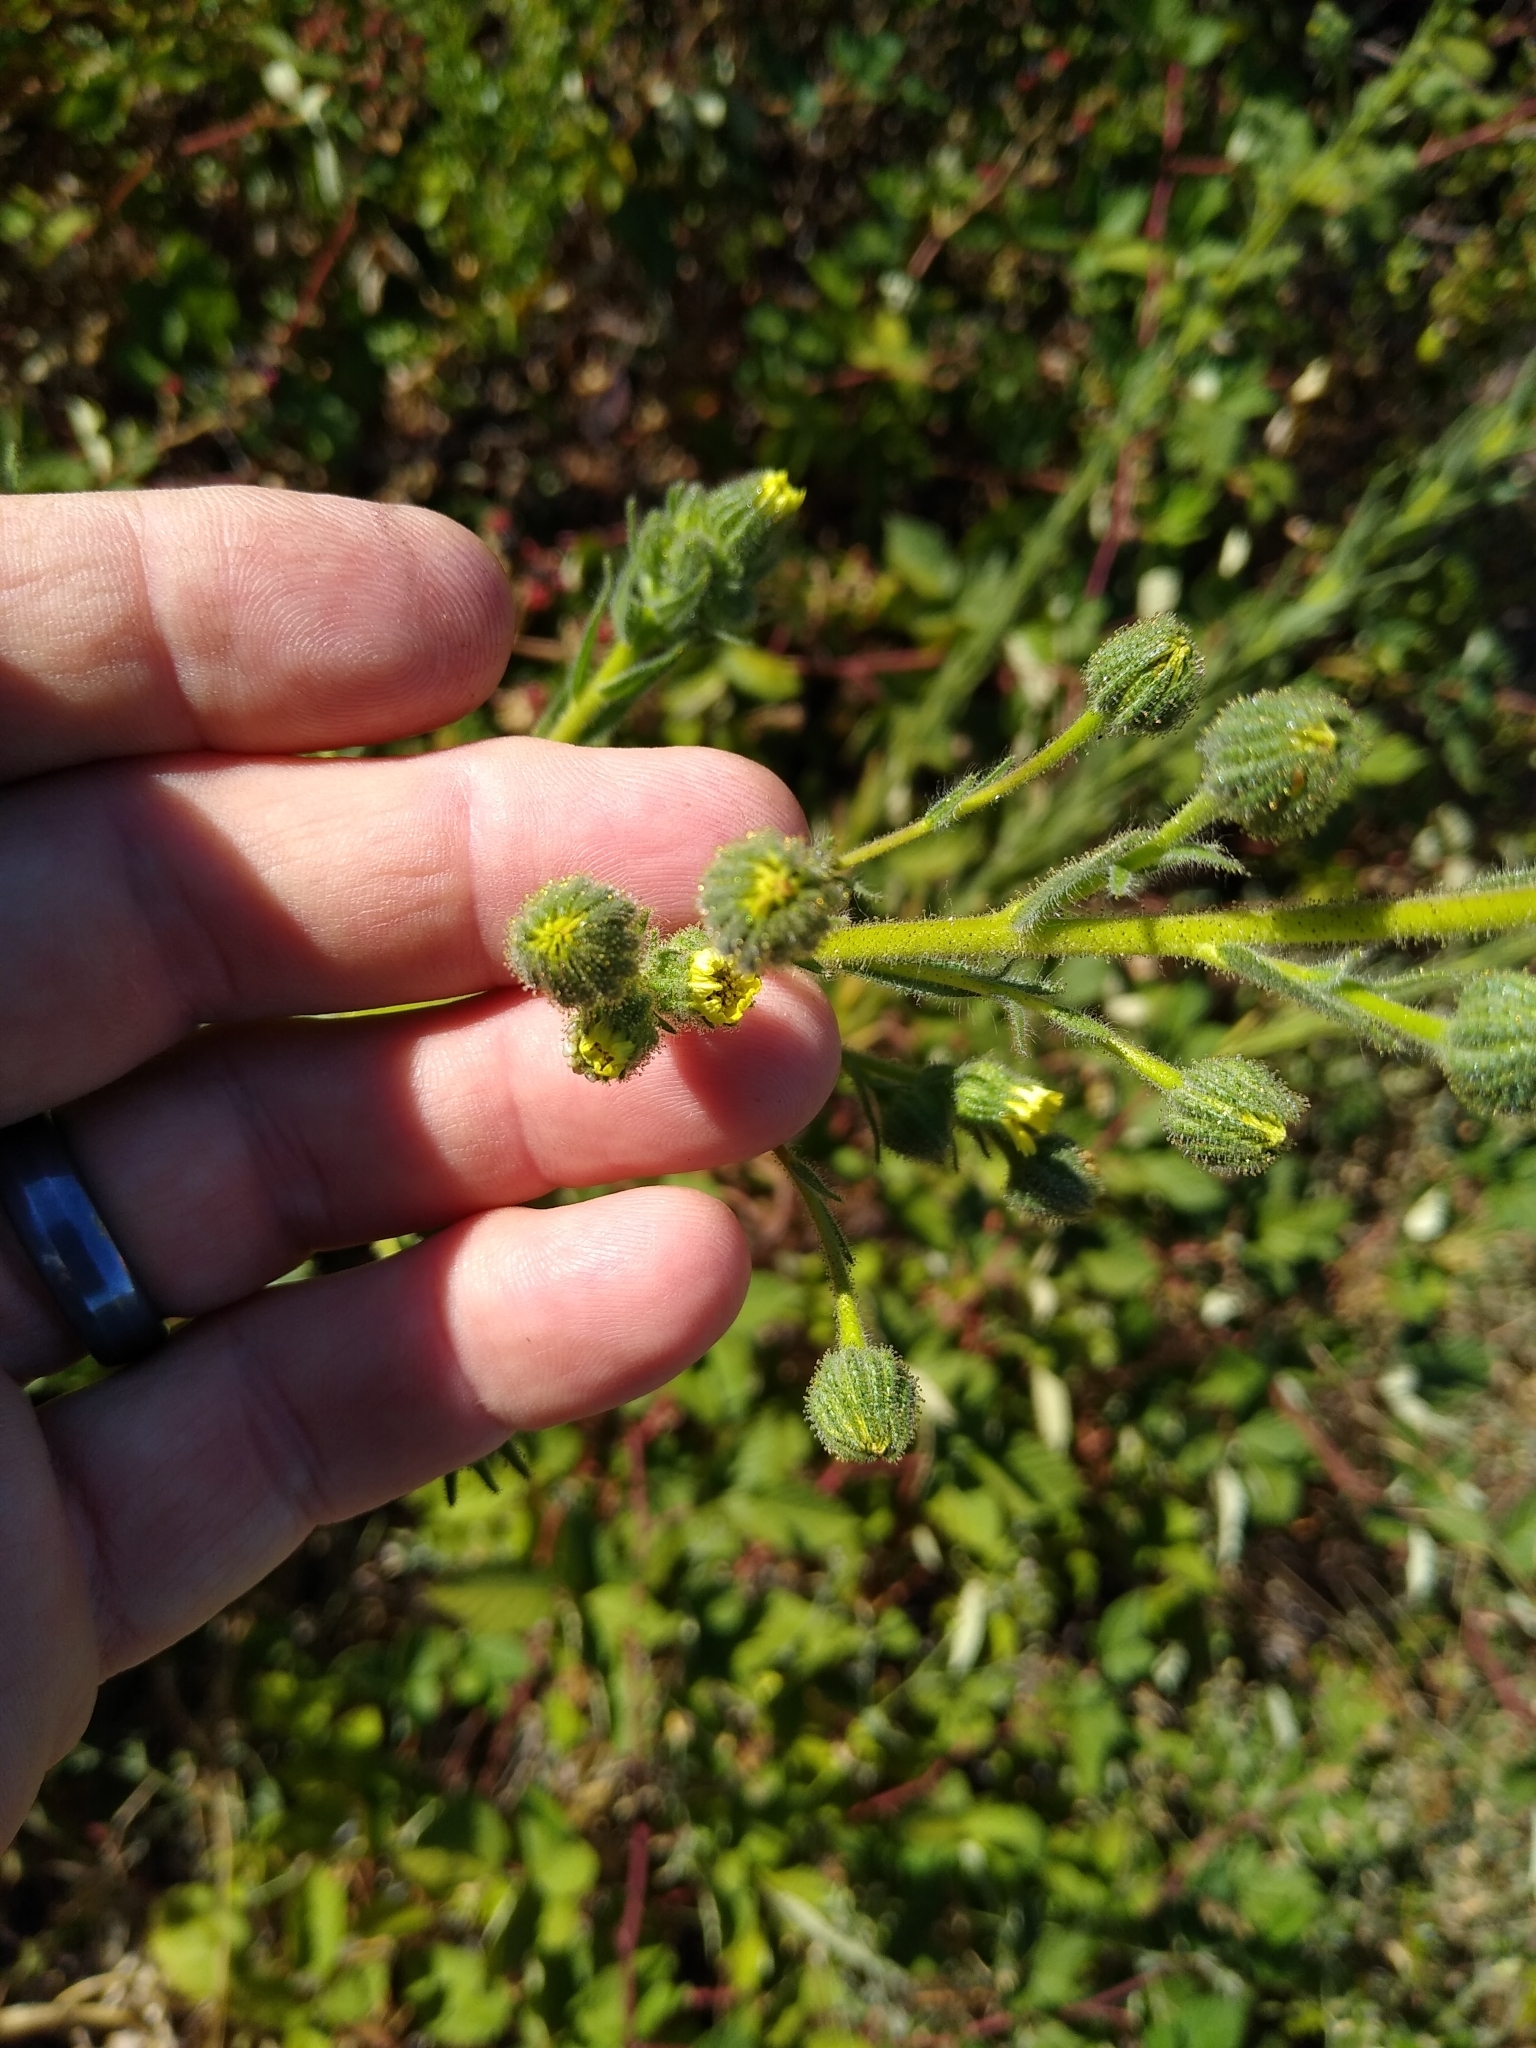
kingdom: Plantae
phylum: Tracheophyta
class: Magnoliopsida
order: Asterales
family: Asteraceae
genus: Madia
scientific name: Madia sativa
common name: Coast tarweed
